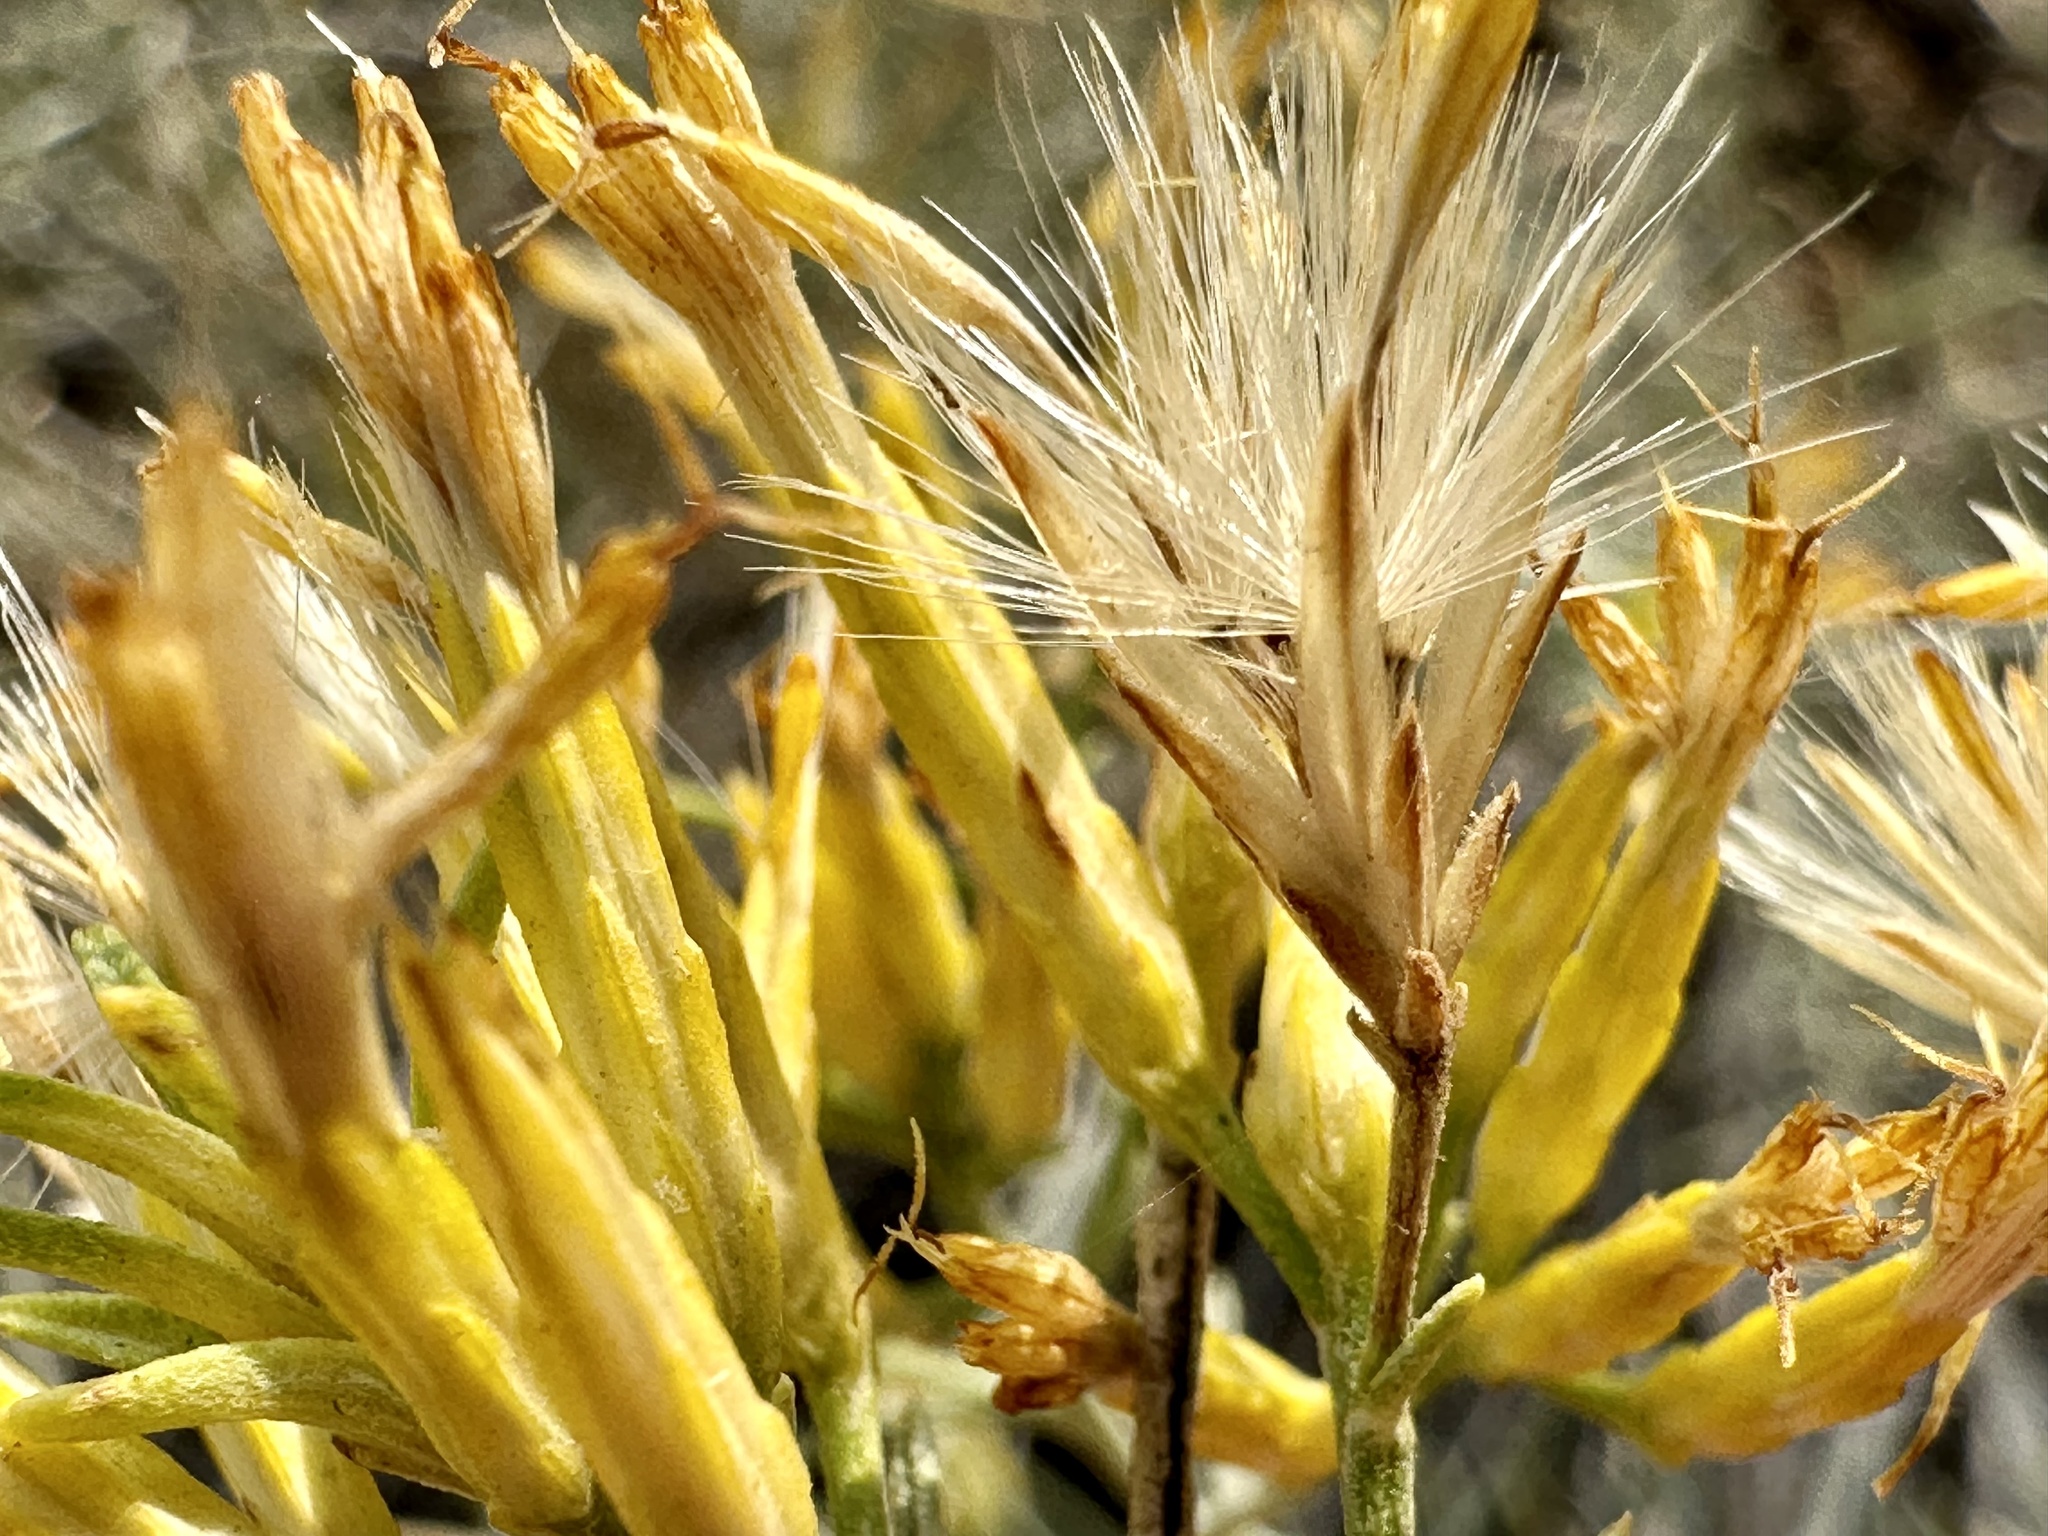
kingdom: Plantae
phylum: Tracheophyta
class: Magnoliopsida
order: Asterales
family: Asteraceae
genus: Ericameria
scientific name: Ericameria nauseosa
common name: Rubber rabbitbrush
